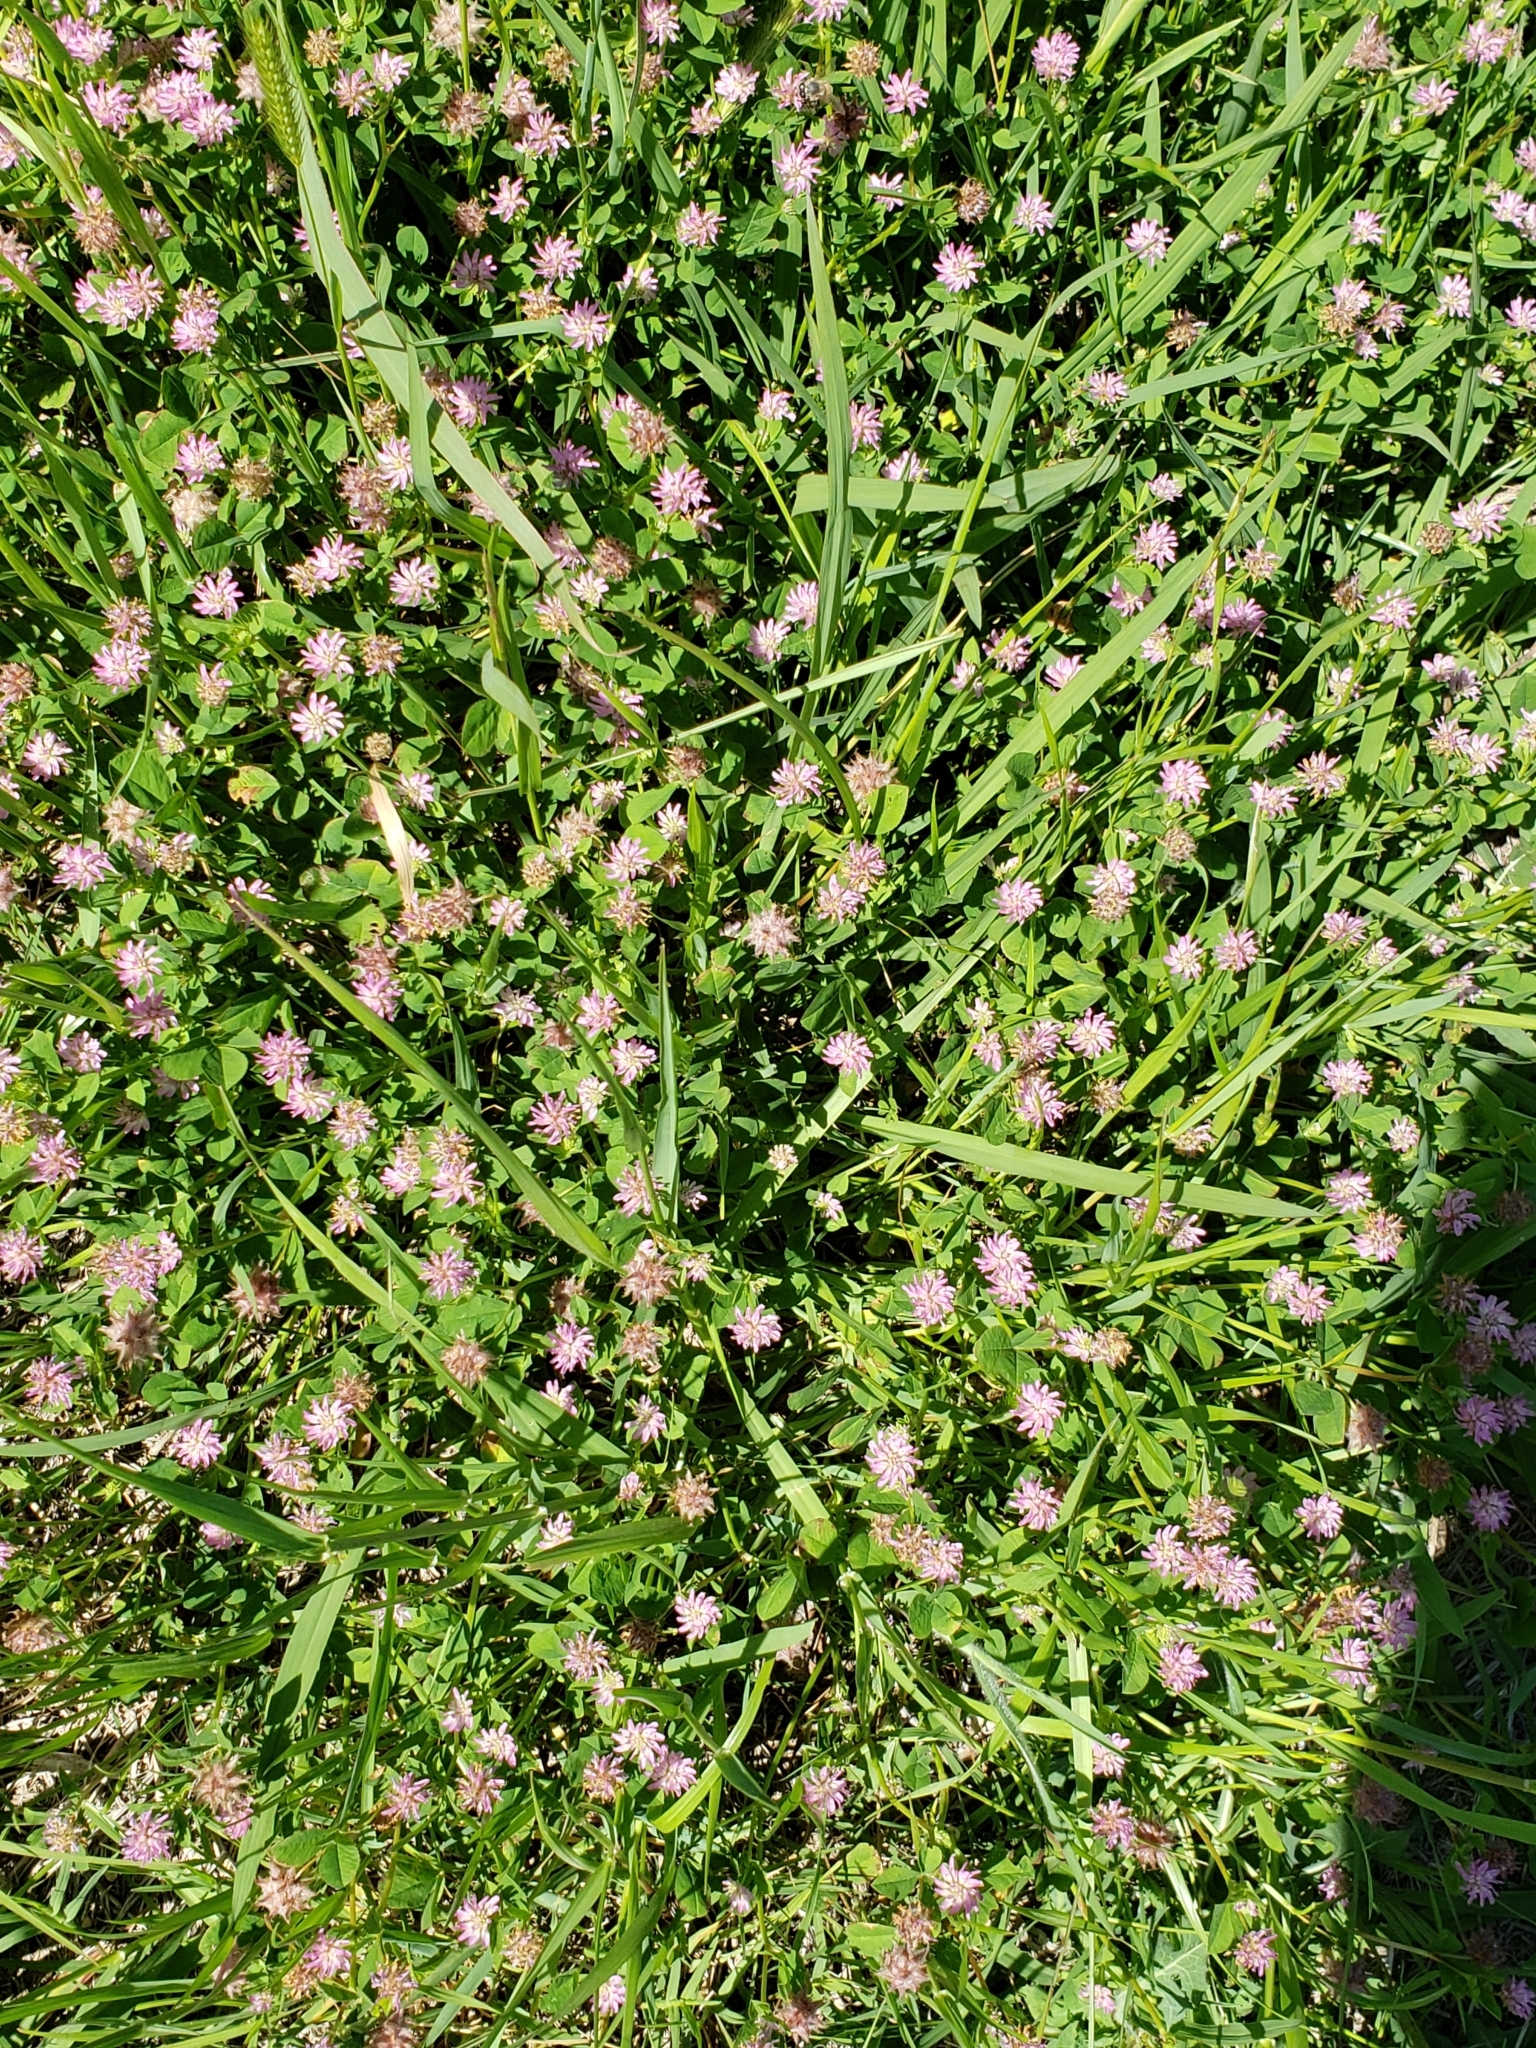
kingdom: Plantae
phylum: Tracheophyta
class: Magnoliopsida
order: Fabales
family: Fabaceae
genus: Trifolium
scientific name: Trifolium resupinatum
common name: Reversed clover
